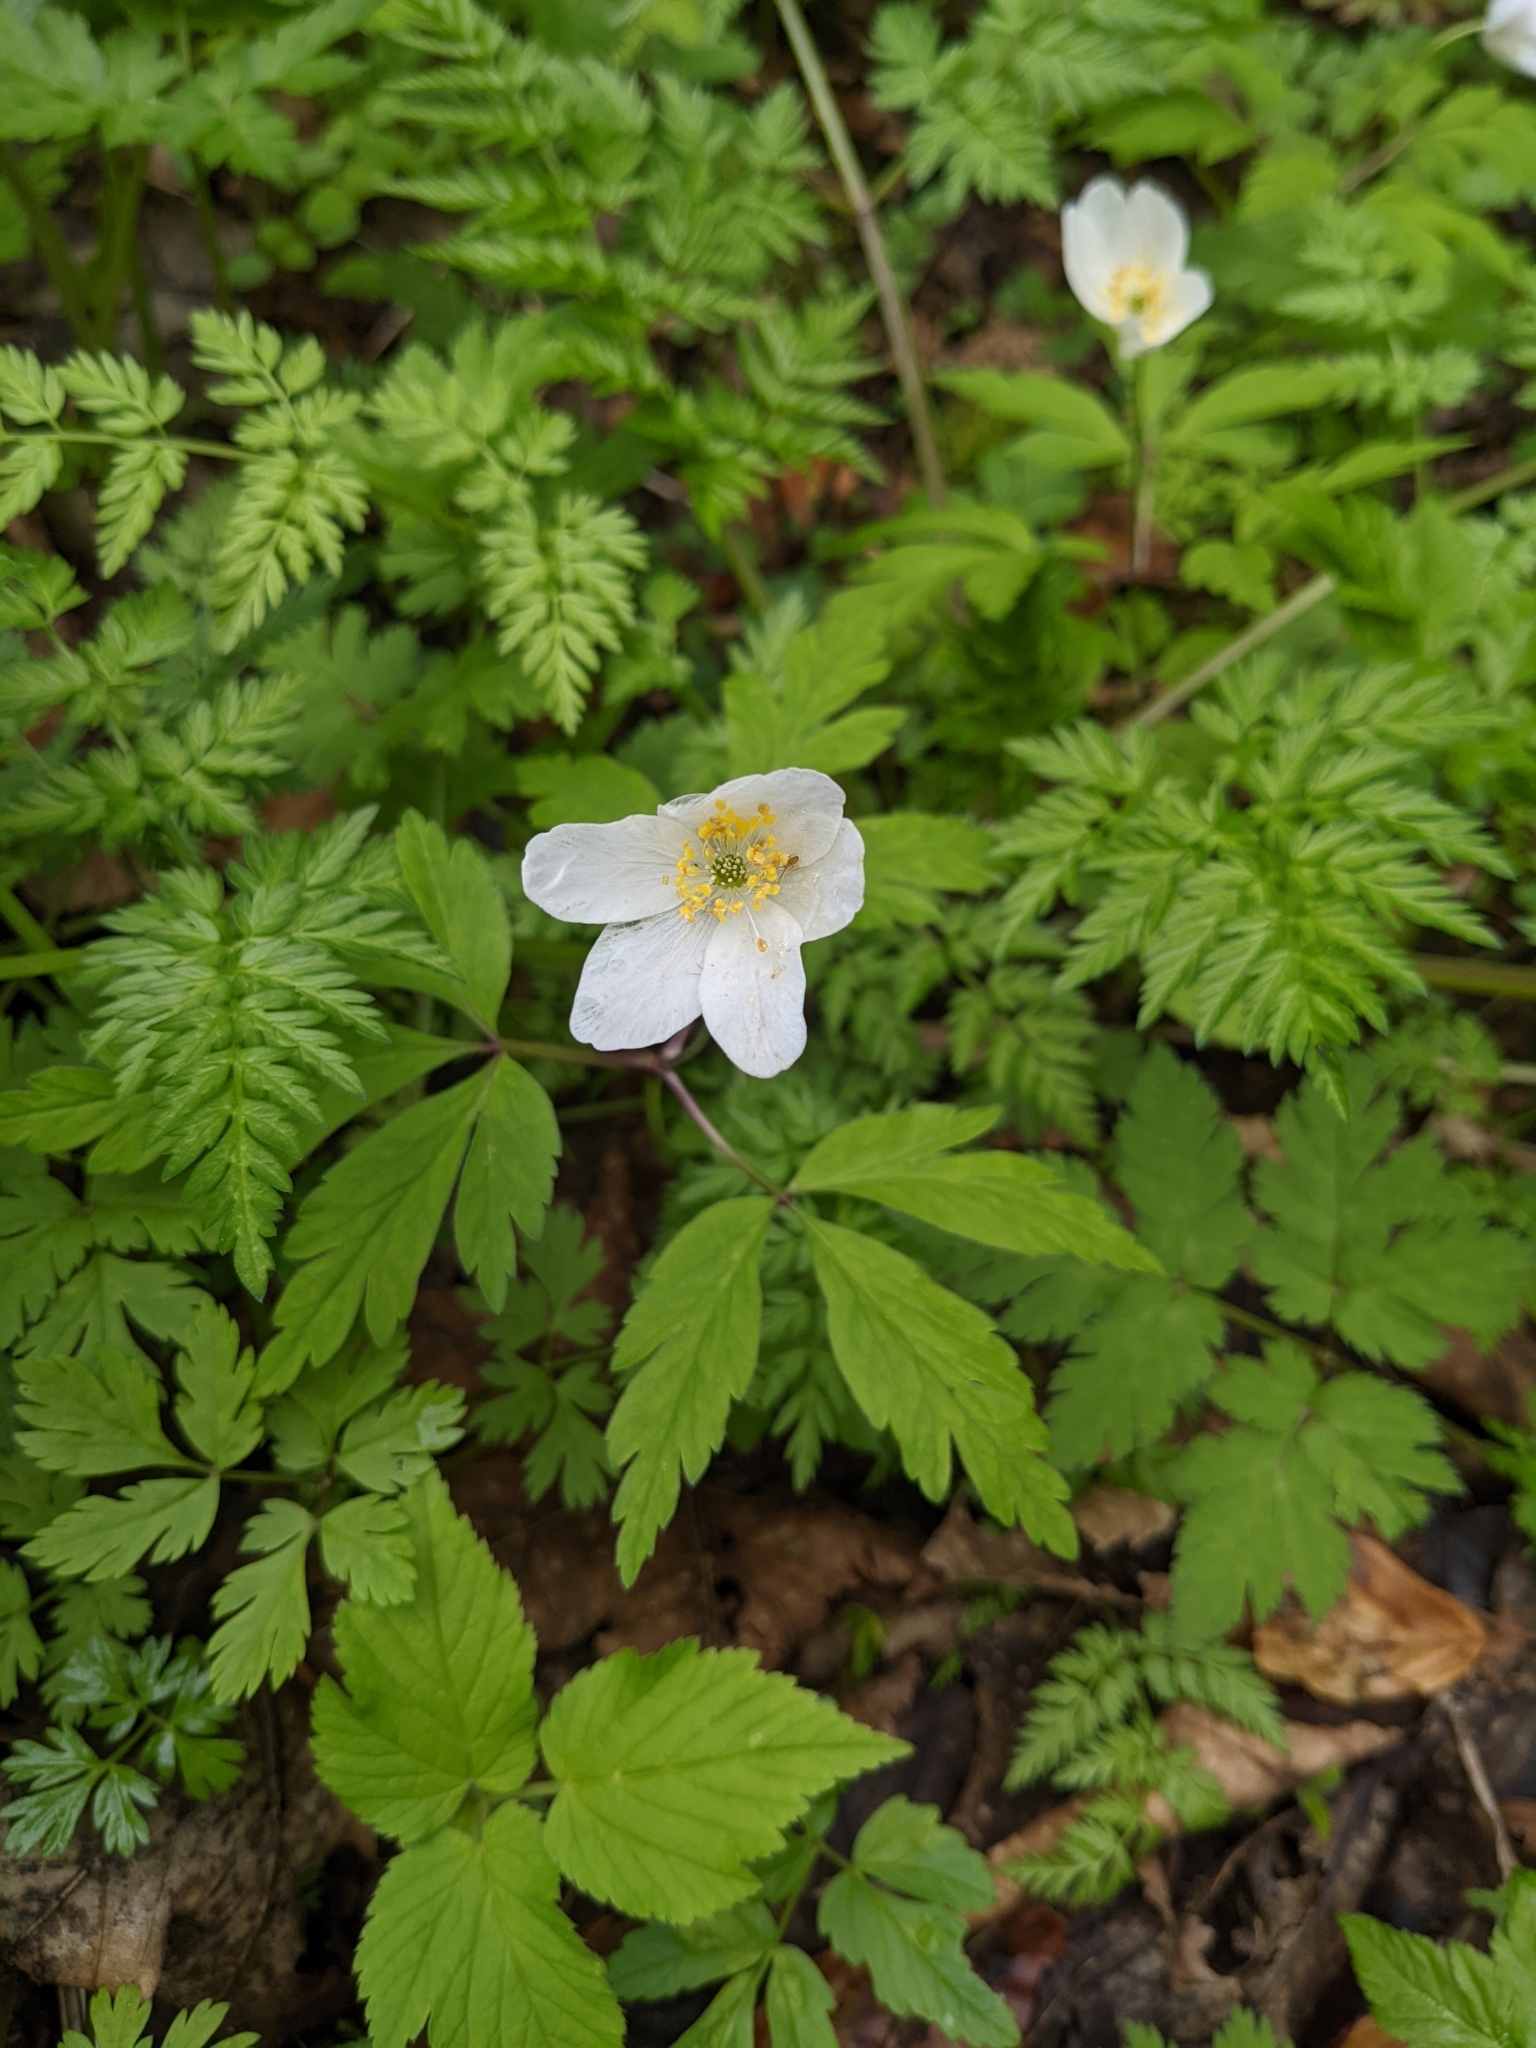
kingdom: Plantae
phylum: Tracheophyta
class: Magnoliopsida
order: Ranunculales
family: Ranunculaceae
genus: Anemone
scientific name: Anemone nemorosa
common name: Wood anemone
